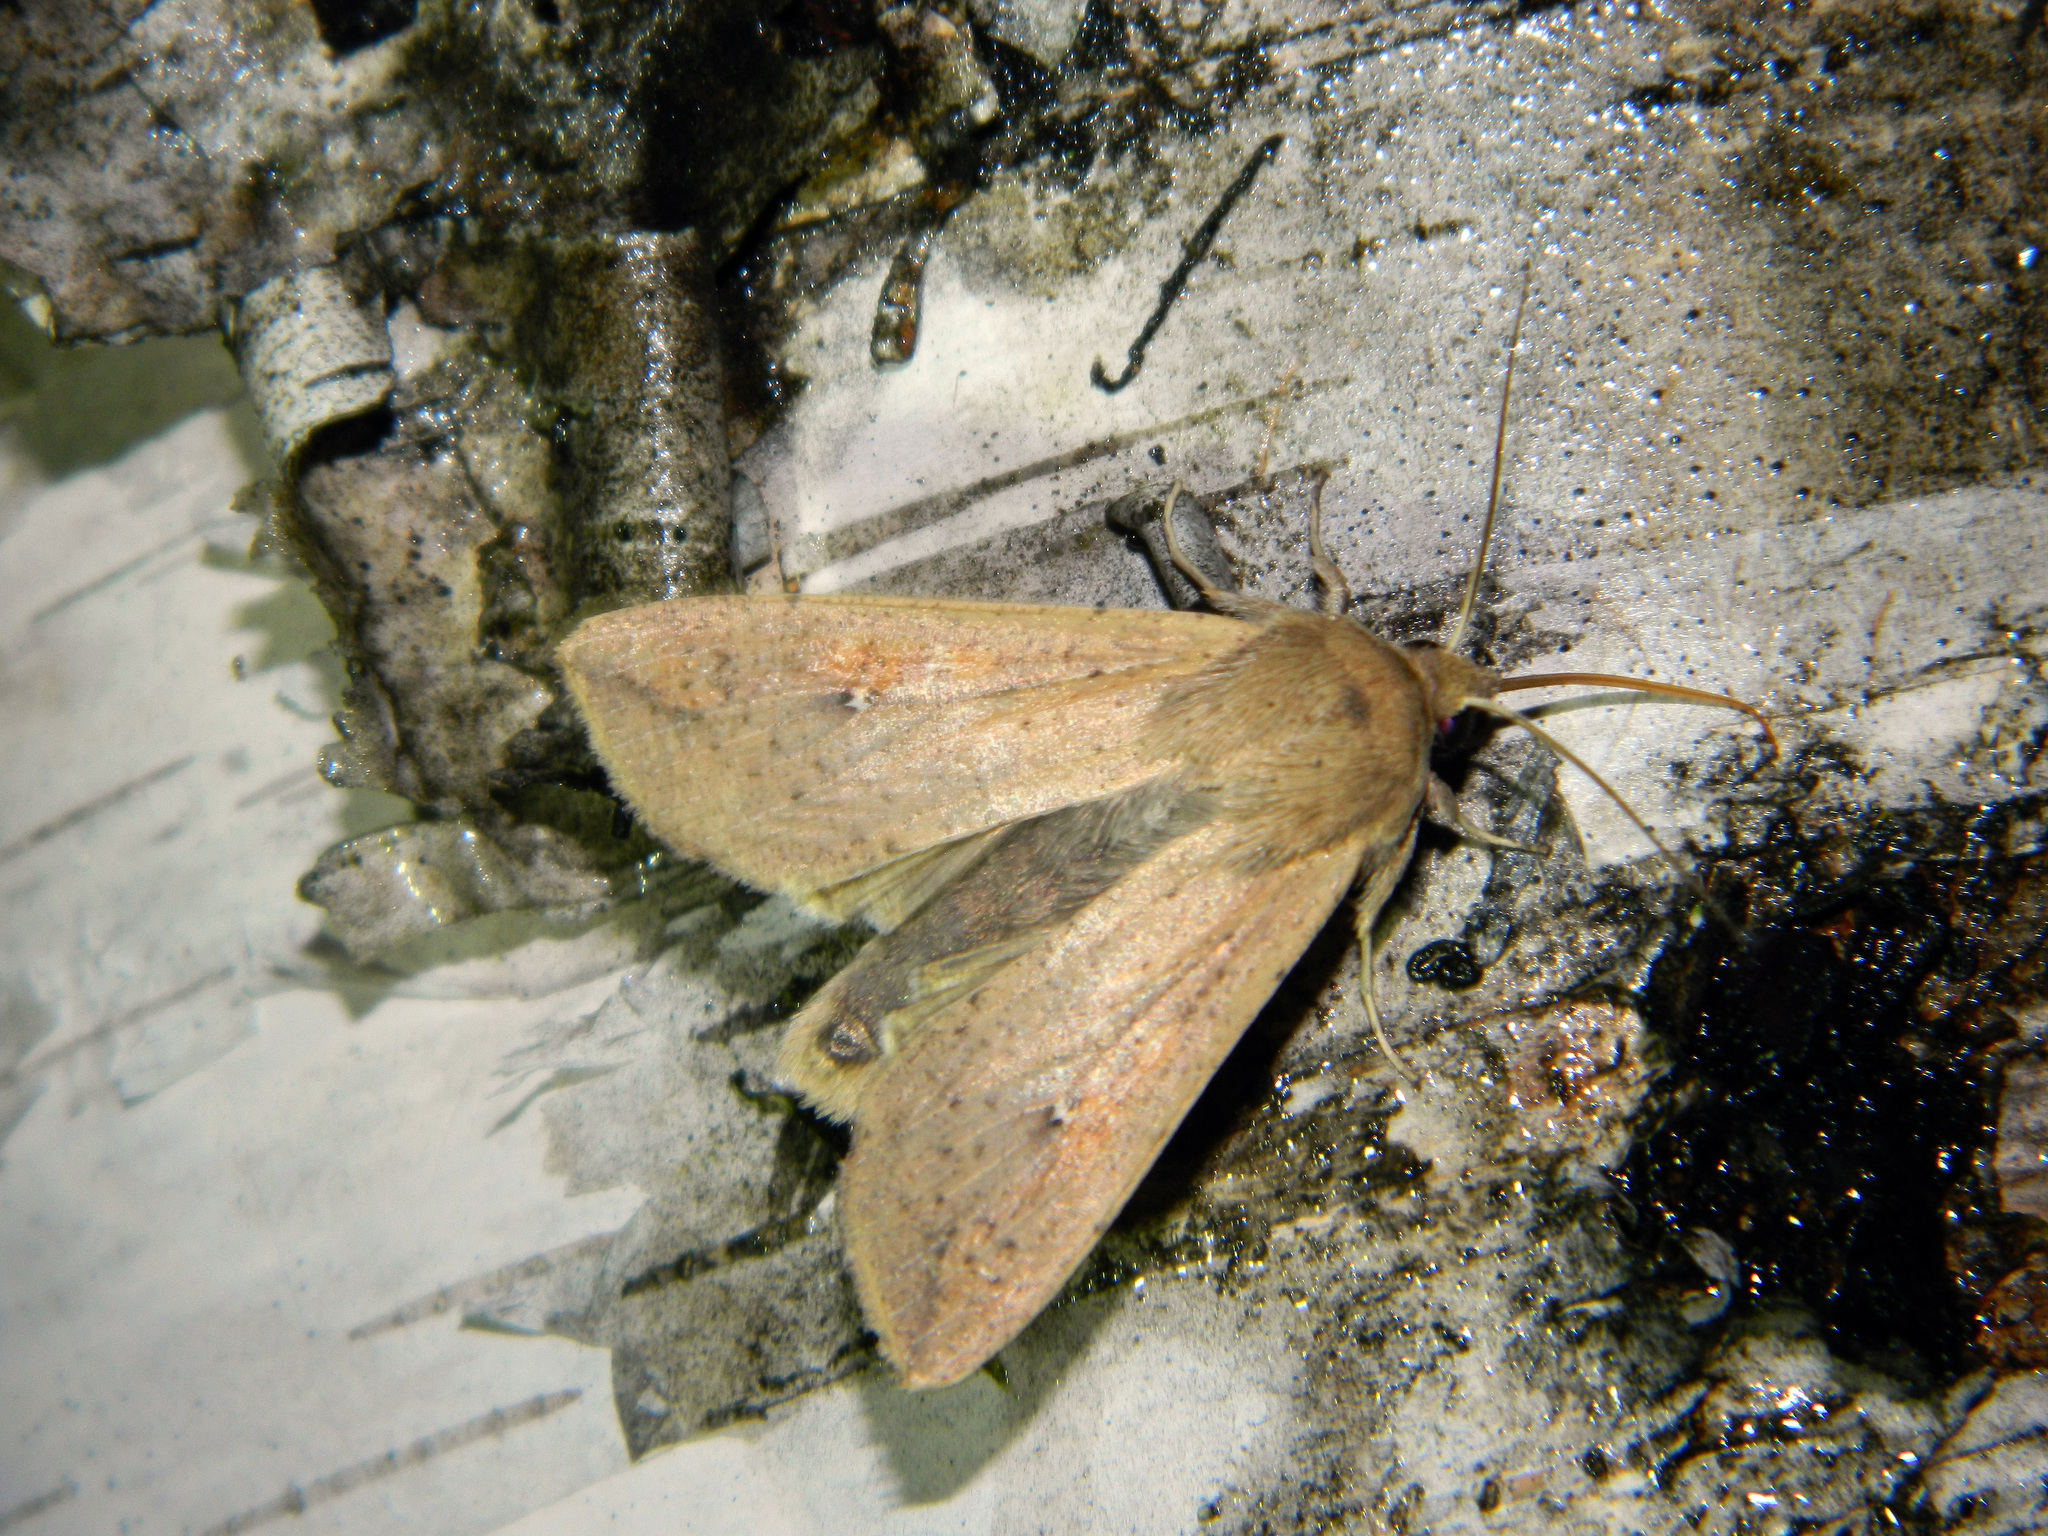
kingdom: Animalia
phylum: Arthropoda
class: Insecta
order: Lepidoptera
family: Noctuidae
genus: Mythimna
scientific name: Mythimna unipuncta
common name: White-speck
